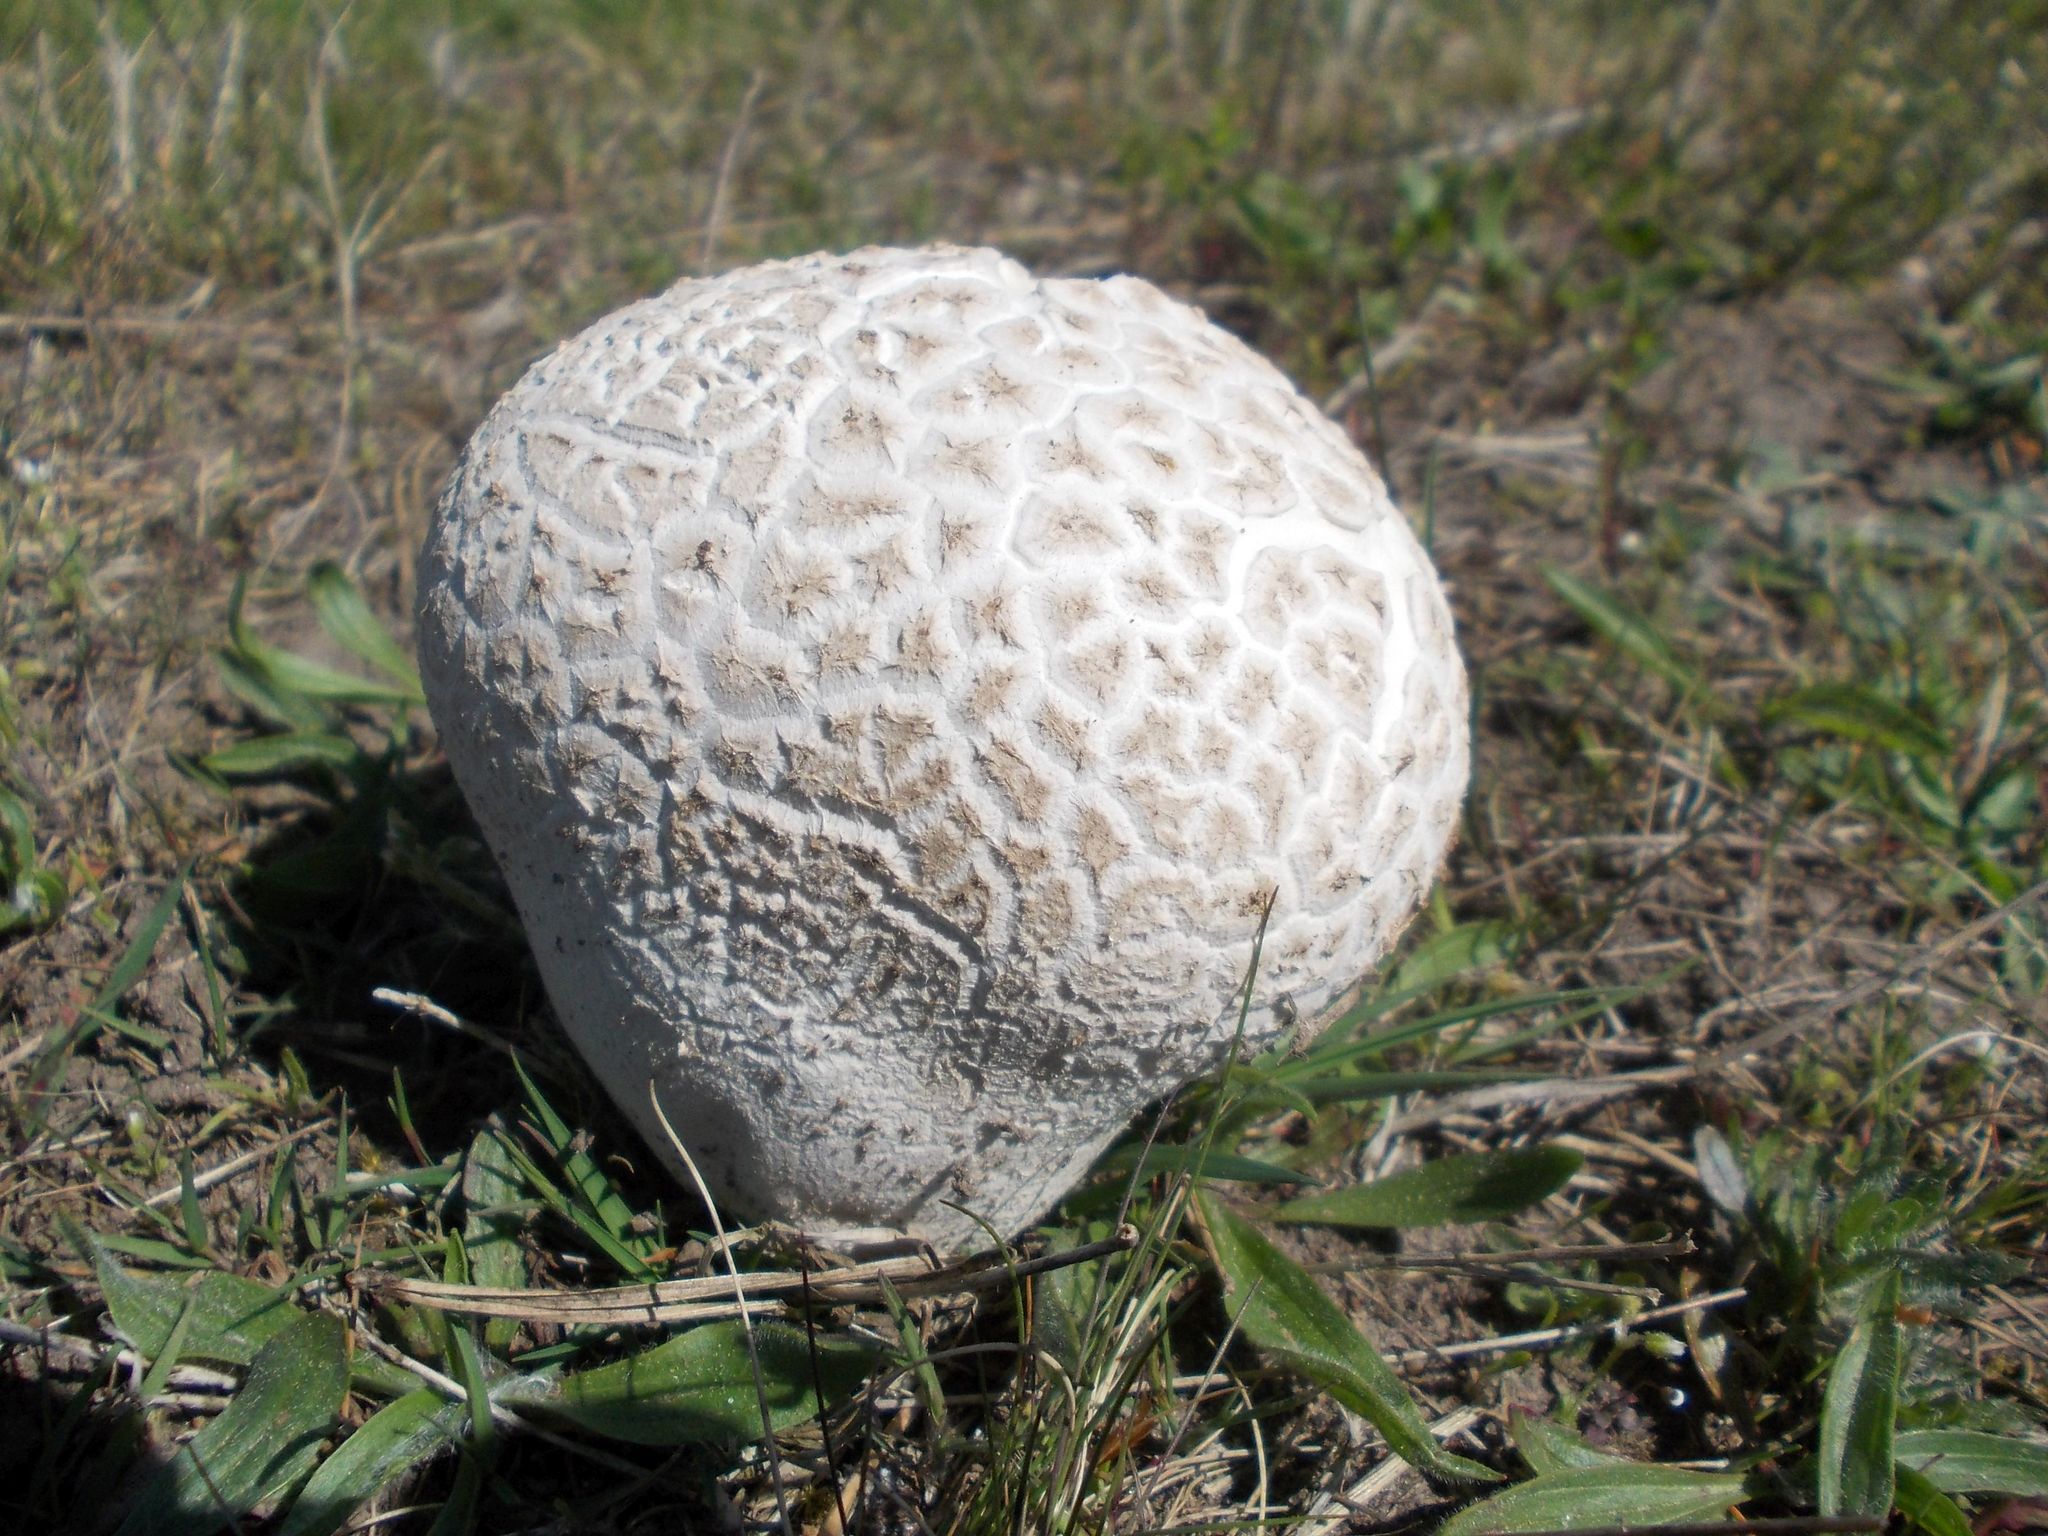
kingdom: Fungi
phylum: Basidiomycota
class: Agaricomycetes
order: Agaricales
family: Lycoperdaceae
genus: Bovistella
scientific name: Bovistella utriformis
